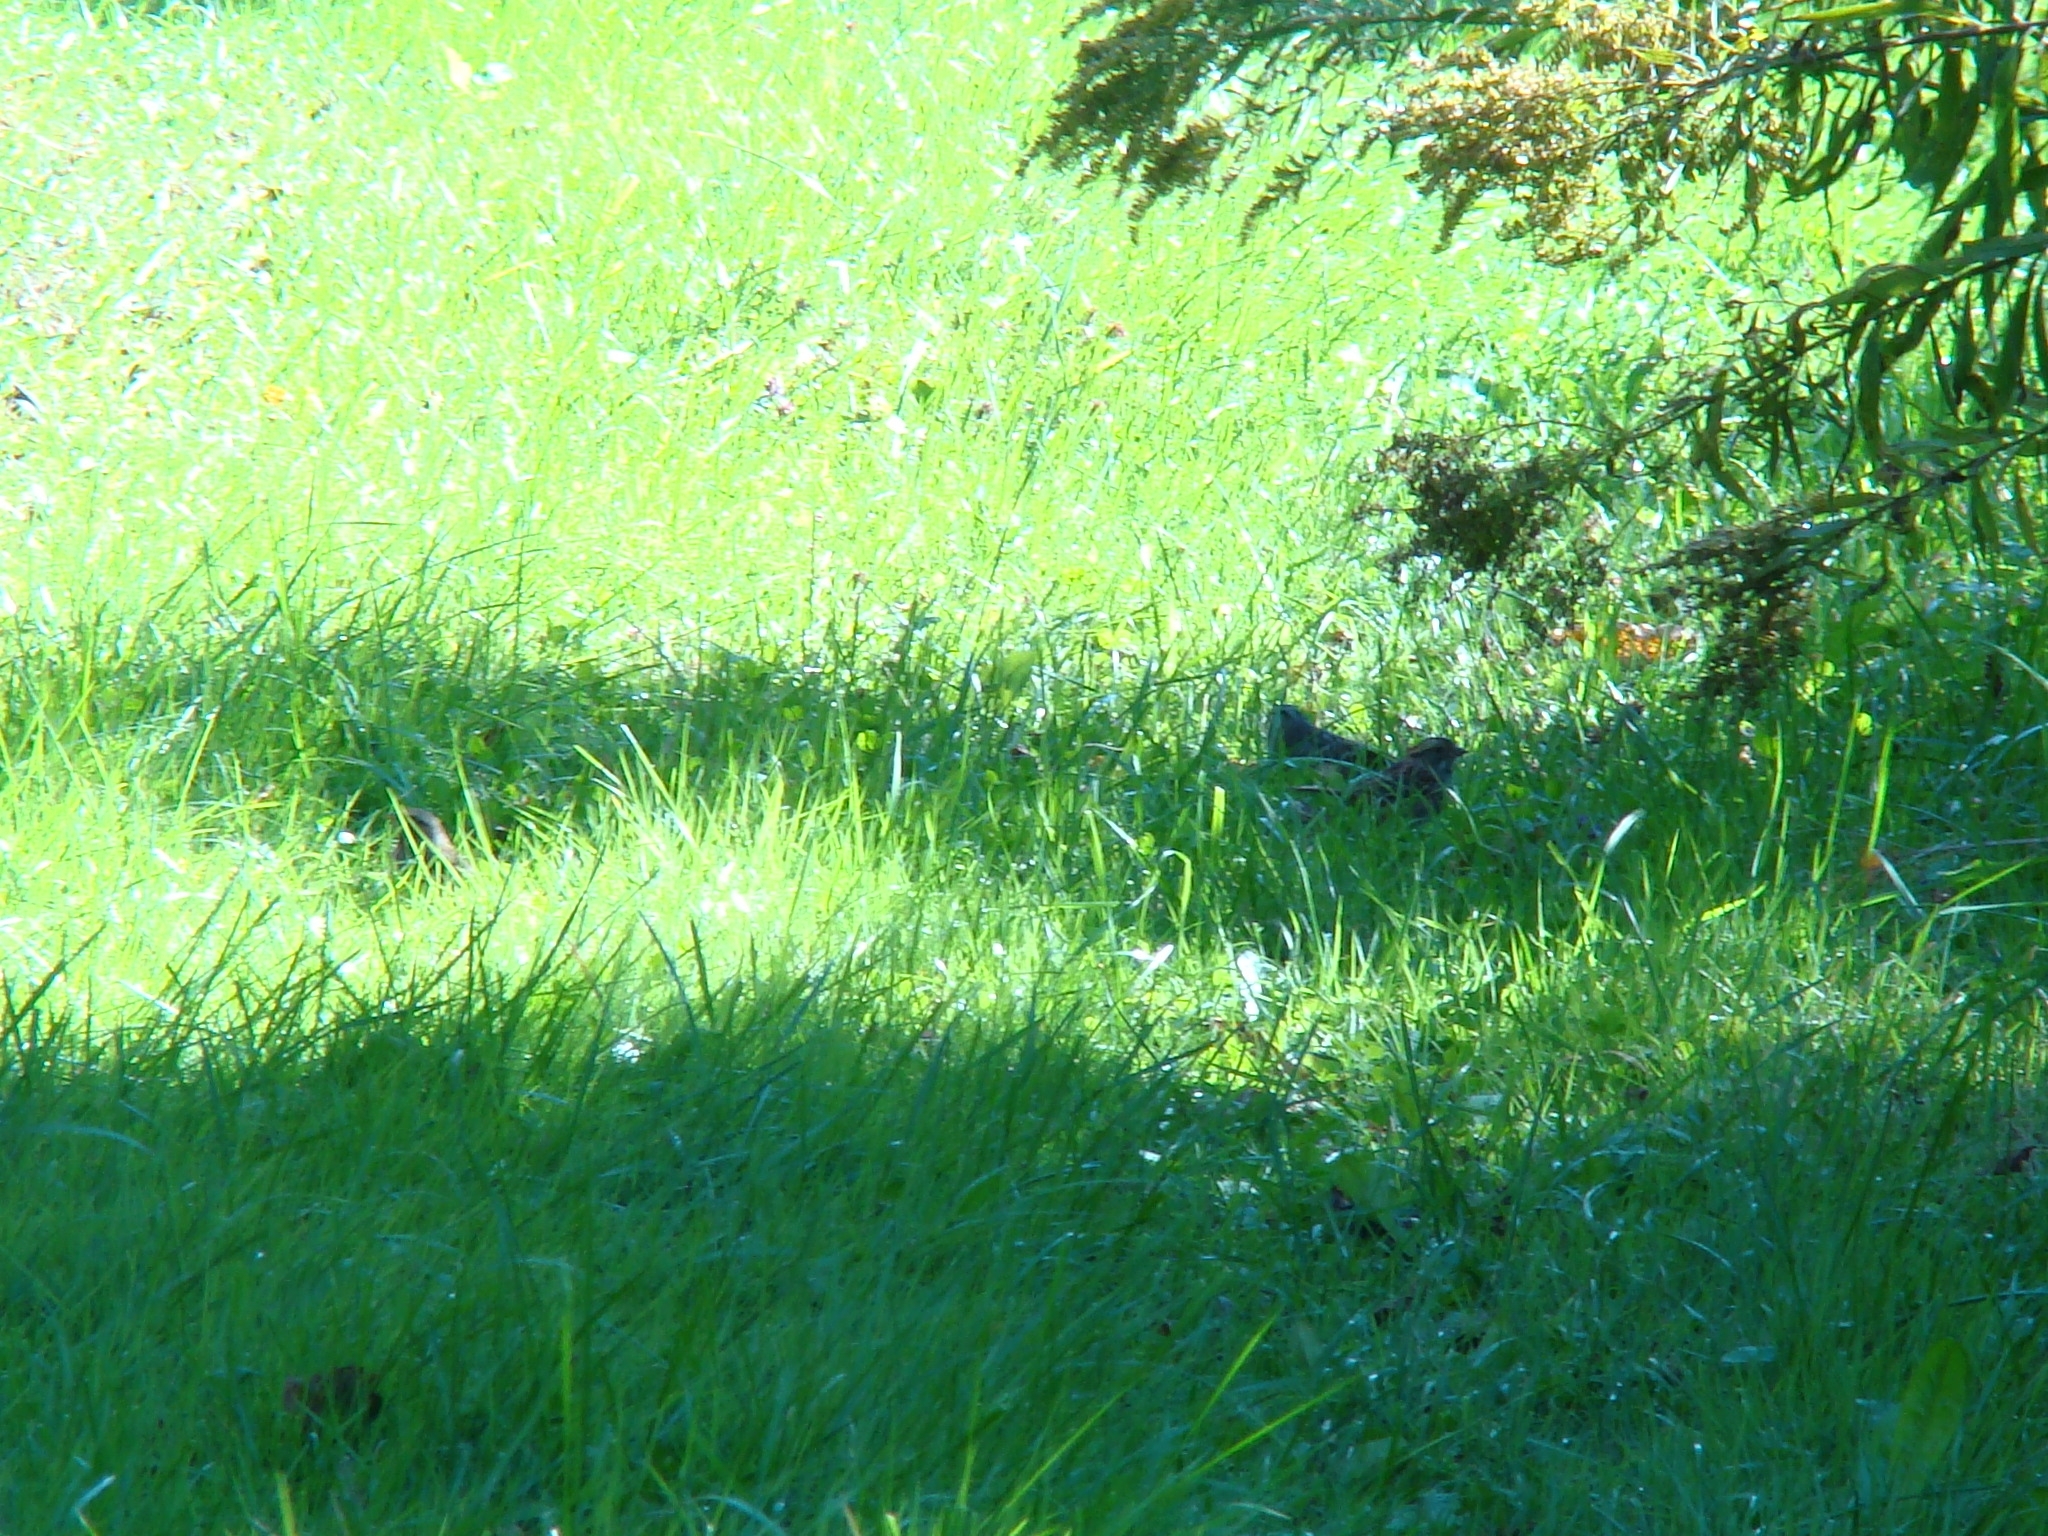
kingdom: Animalia
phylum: Chordata
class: Aves
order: Passeriformes
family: Passerellidae
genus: Melospiza
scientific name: Melospiza melodia
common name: Song sparrow
